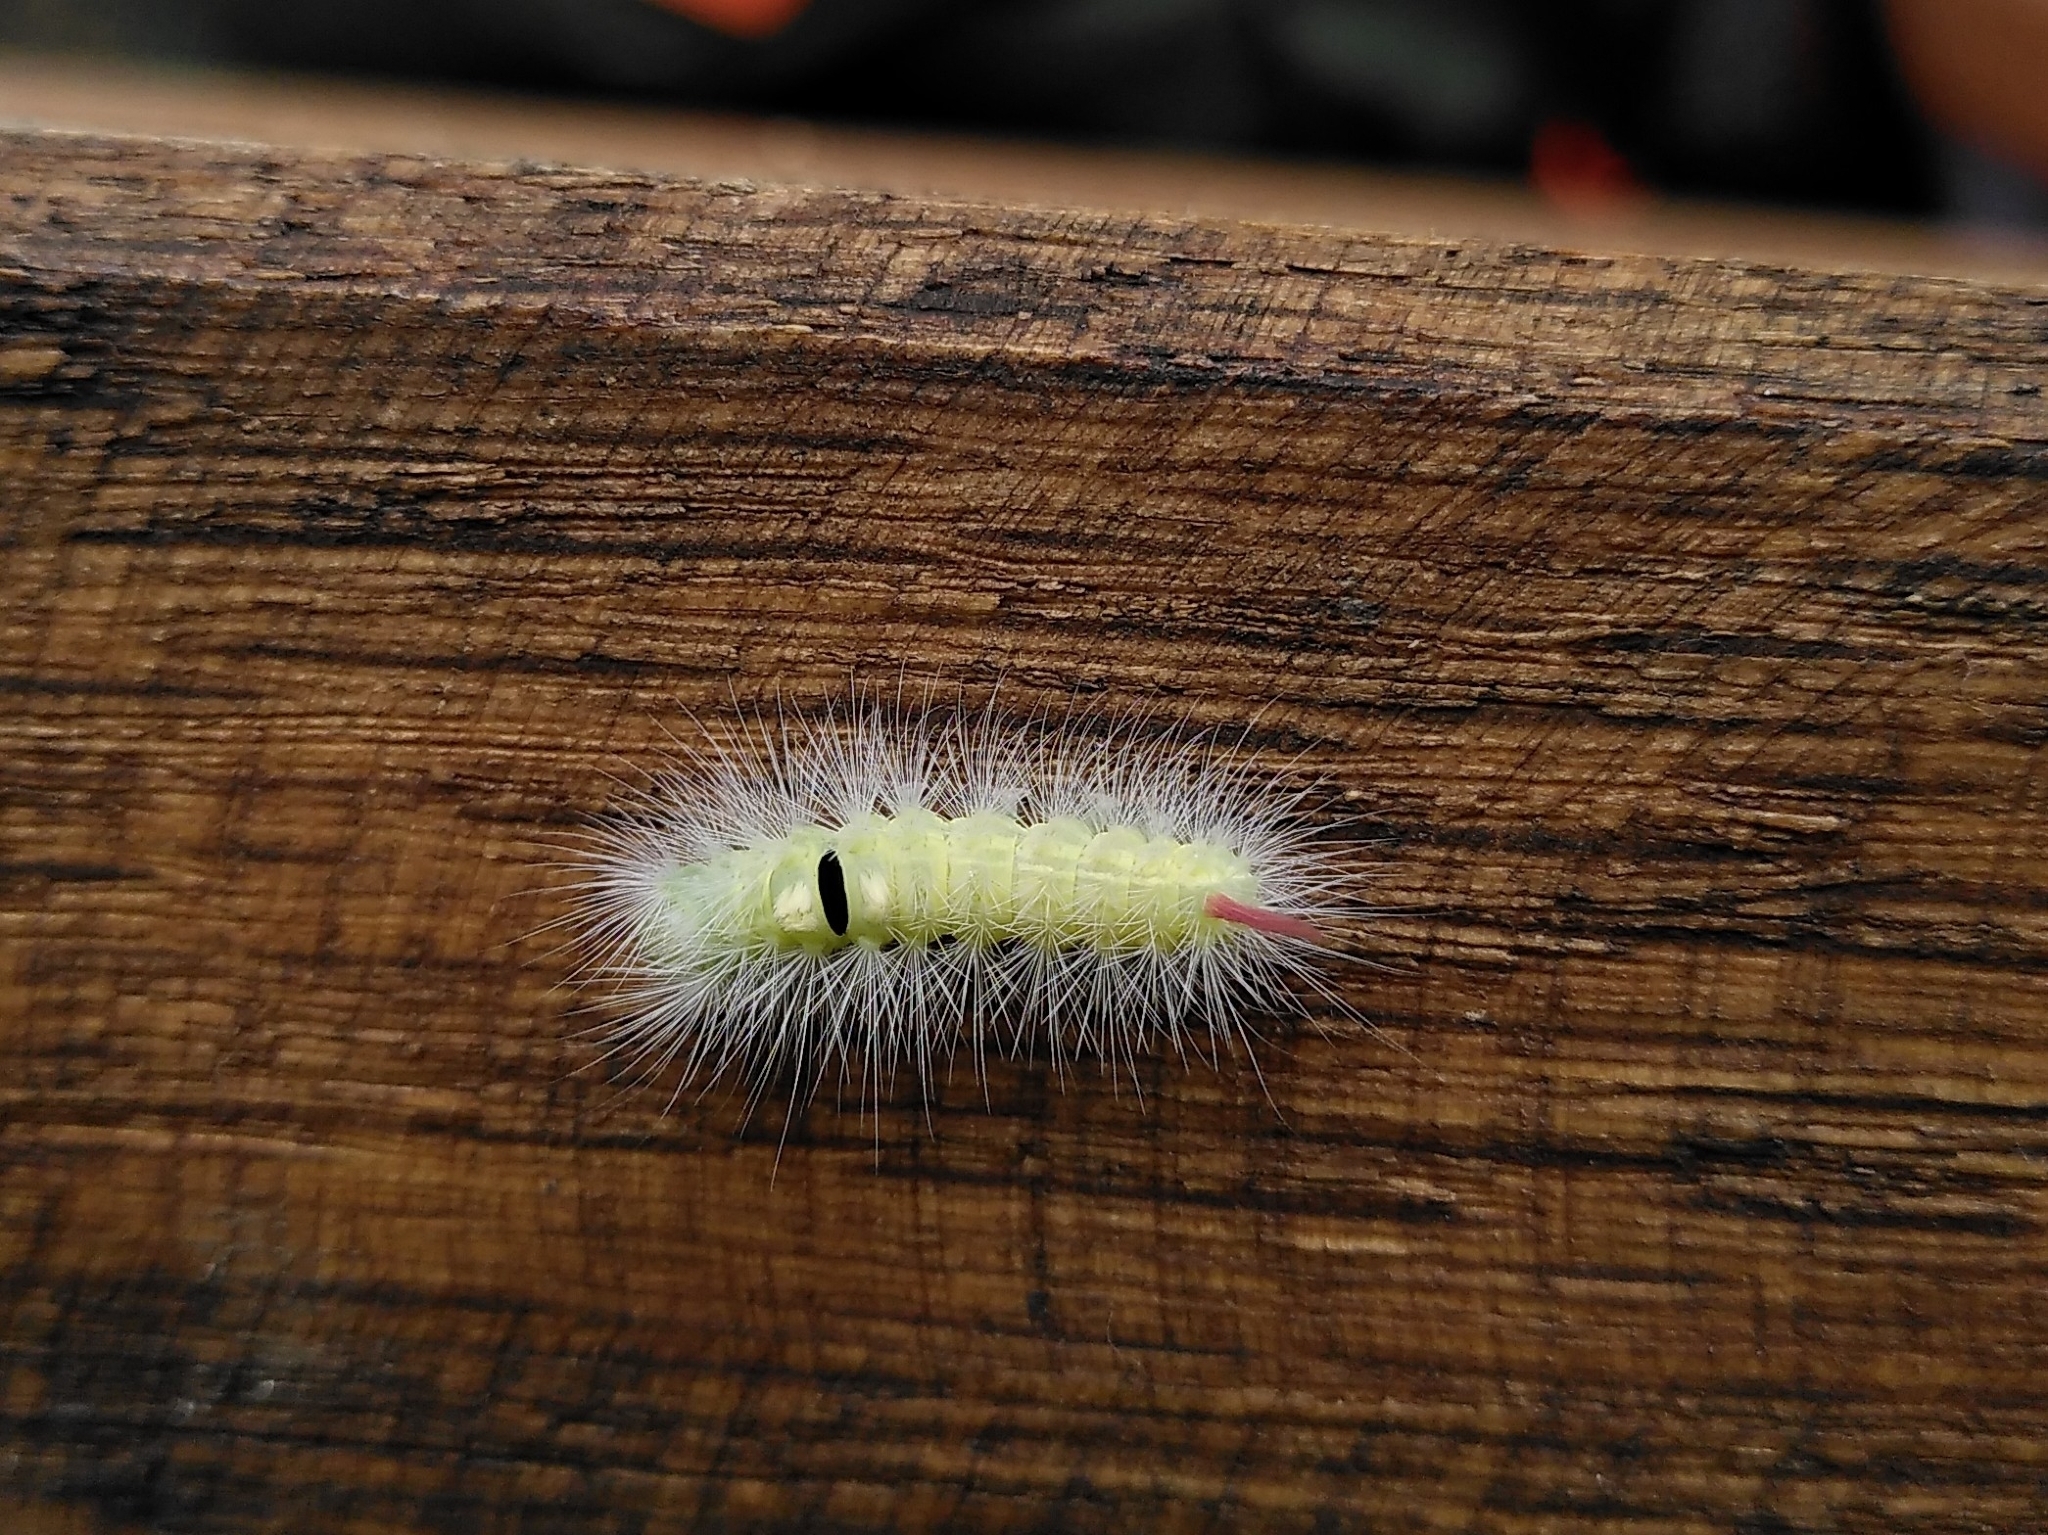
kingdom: Animalia
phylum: Arthropoda
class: Insecta
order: Lepidoptera
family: Erebidae
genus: Calliteara
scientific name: Calliteara pudibunda
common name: Pale tussock
